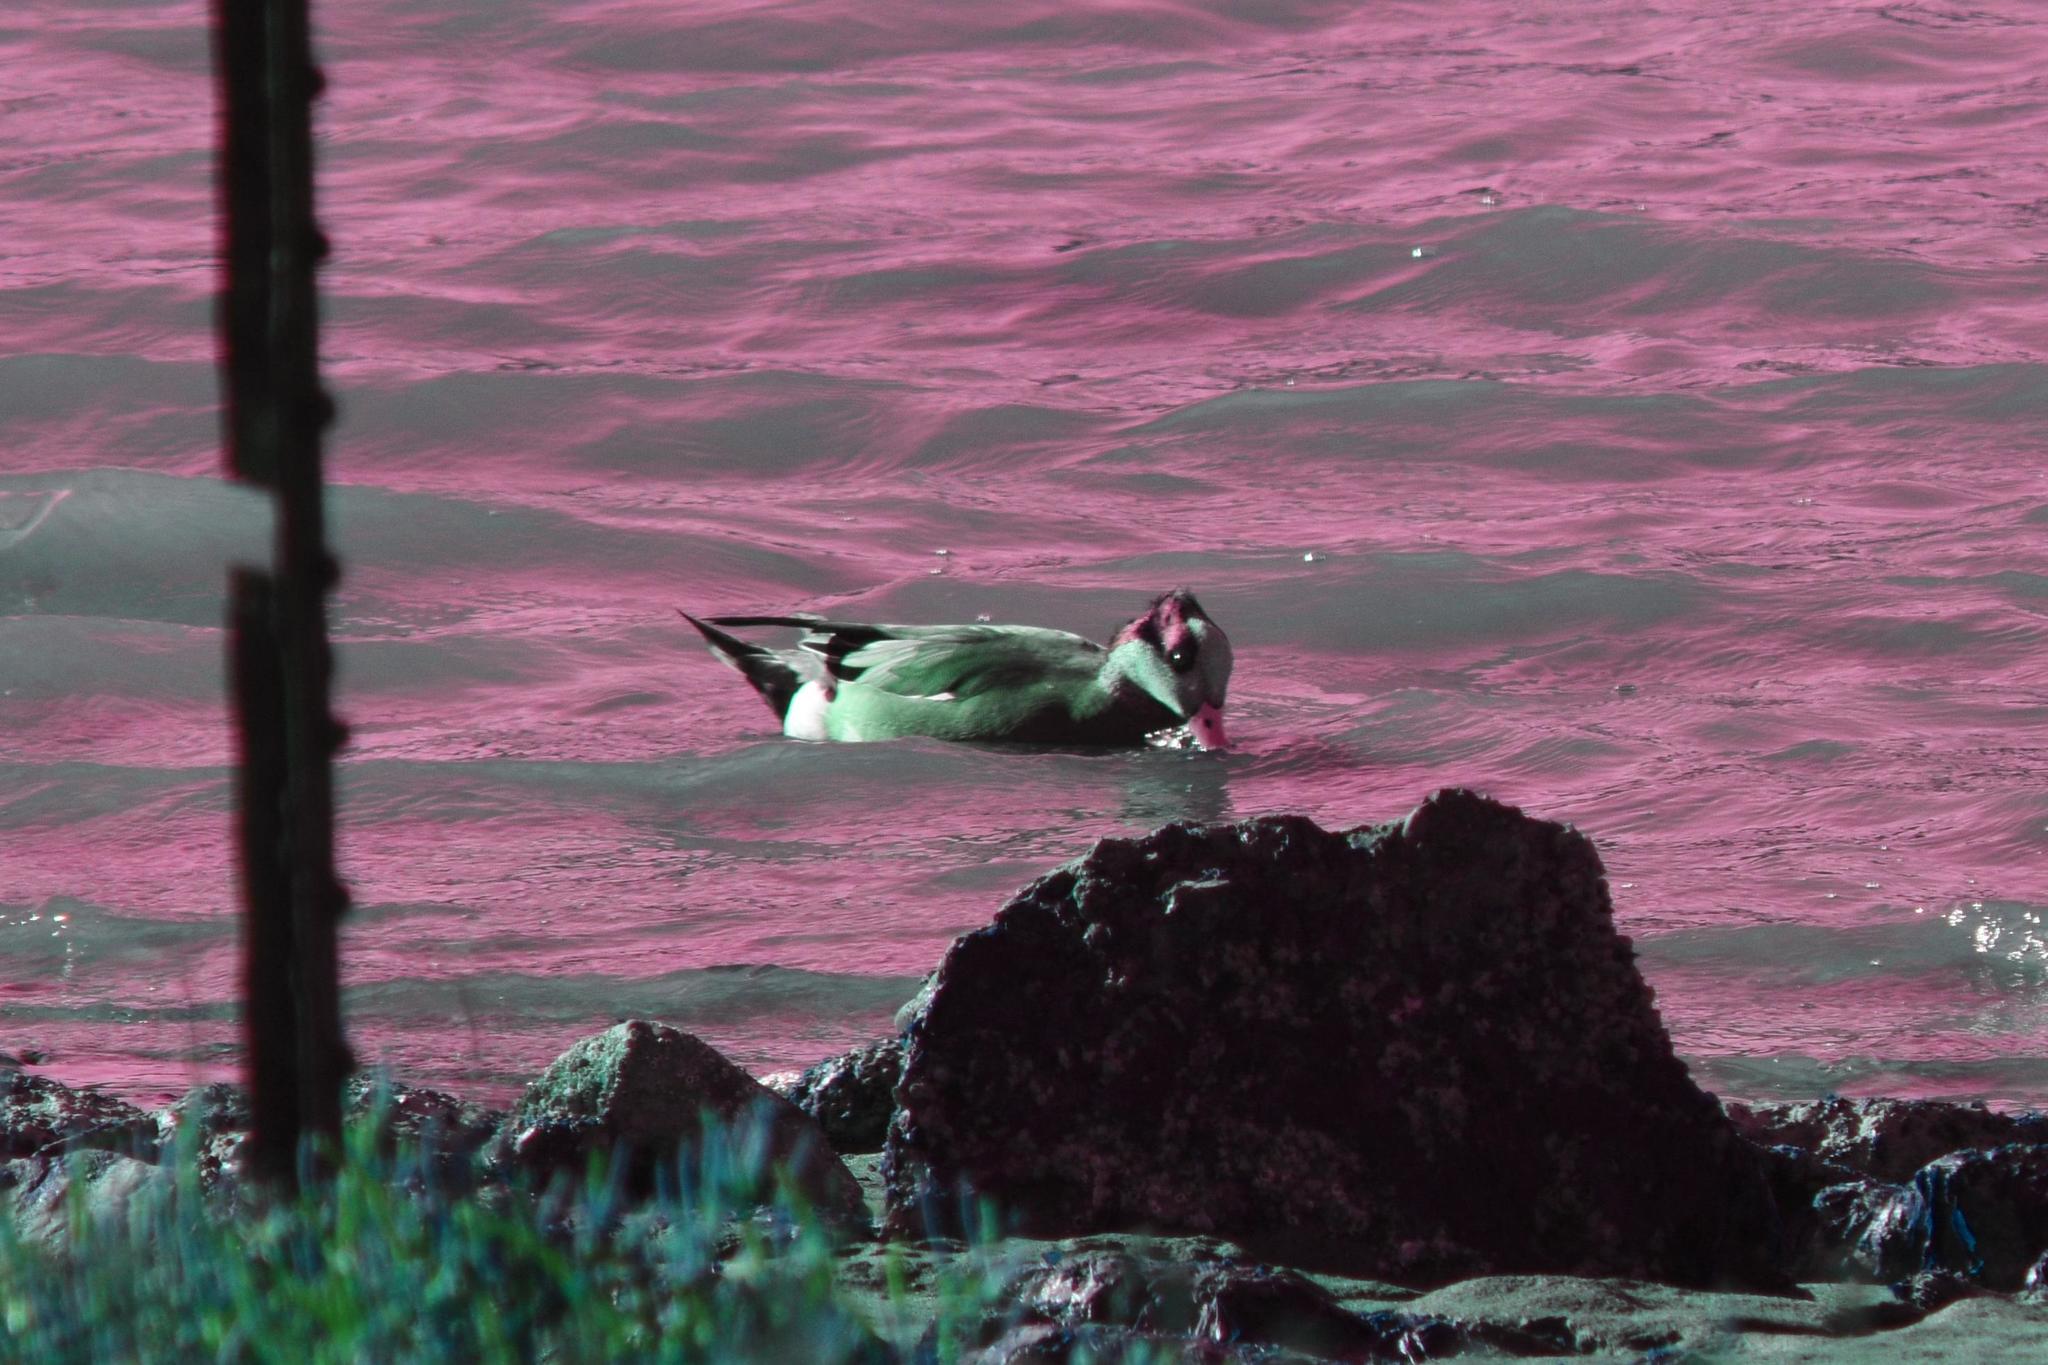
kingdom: Animalia
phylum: Chordata
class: Aves
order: Anseriformes
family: Anatidae
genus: Mareca
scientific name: Mareca americana
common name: American wigeon
